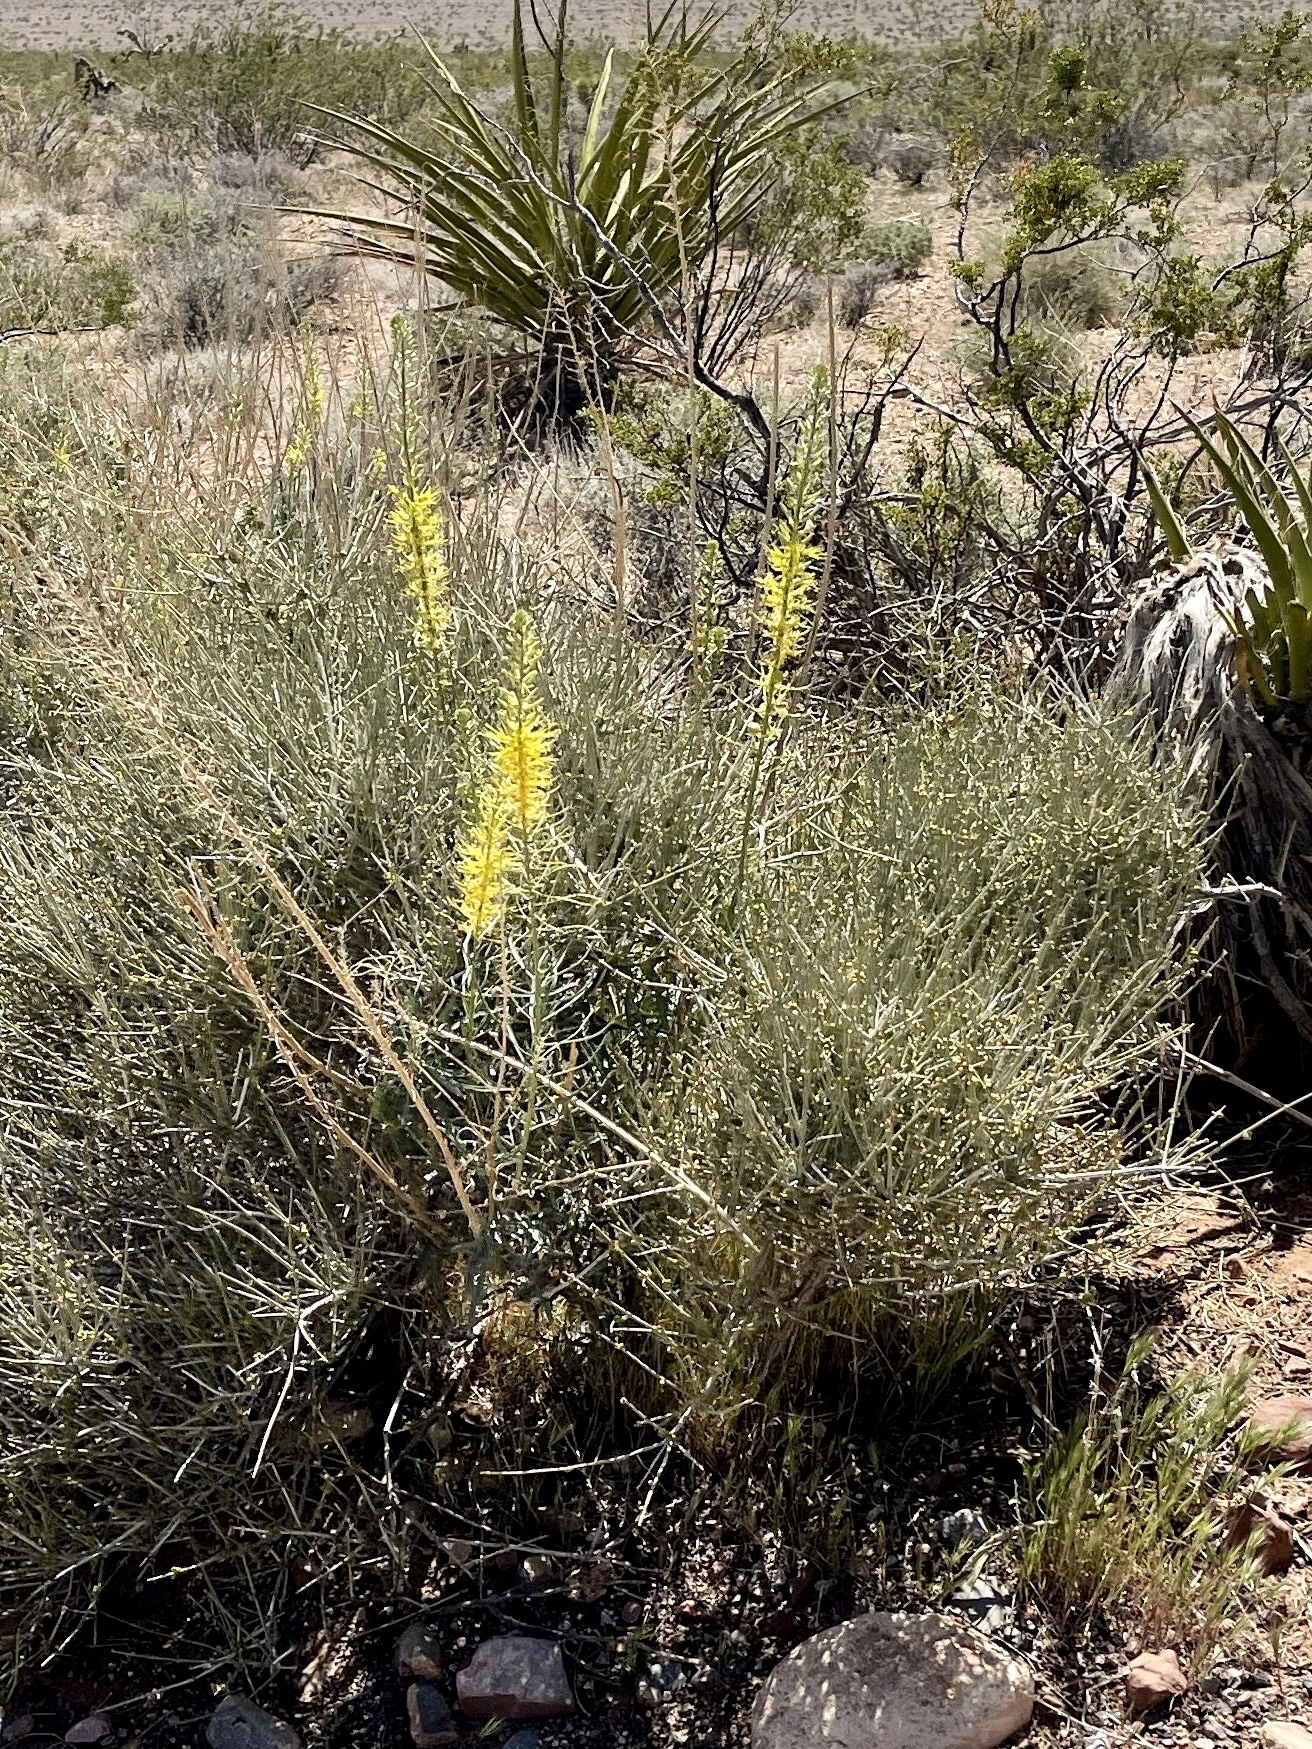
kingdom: Plantae
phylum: Tracheophyta
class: Magnoliopsida
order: Brassicales
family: Brassicaceae
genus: Stanleya
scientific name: Stanleya pinnata
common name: Prince's-plume
